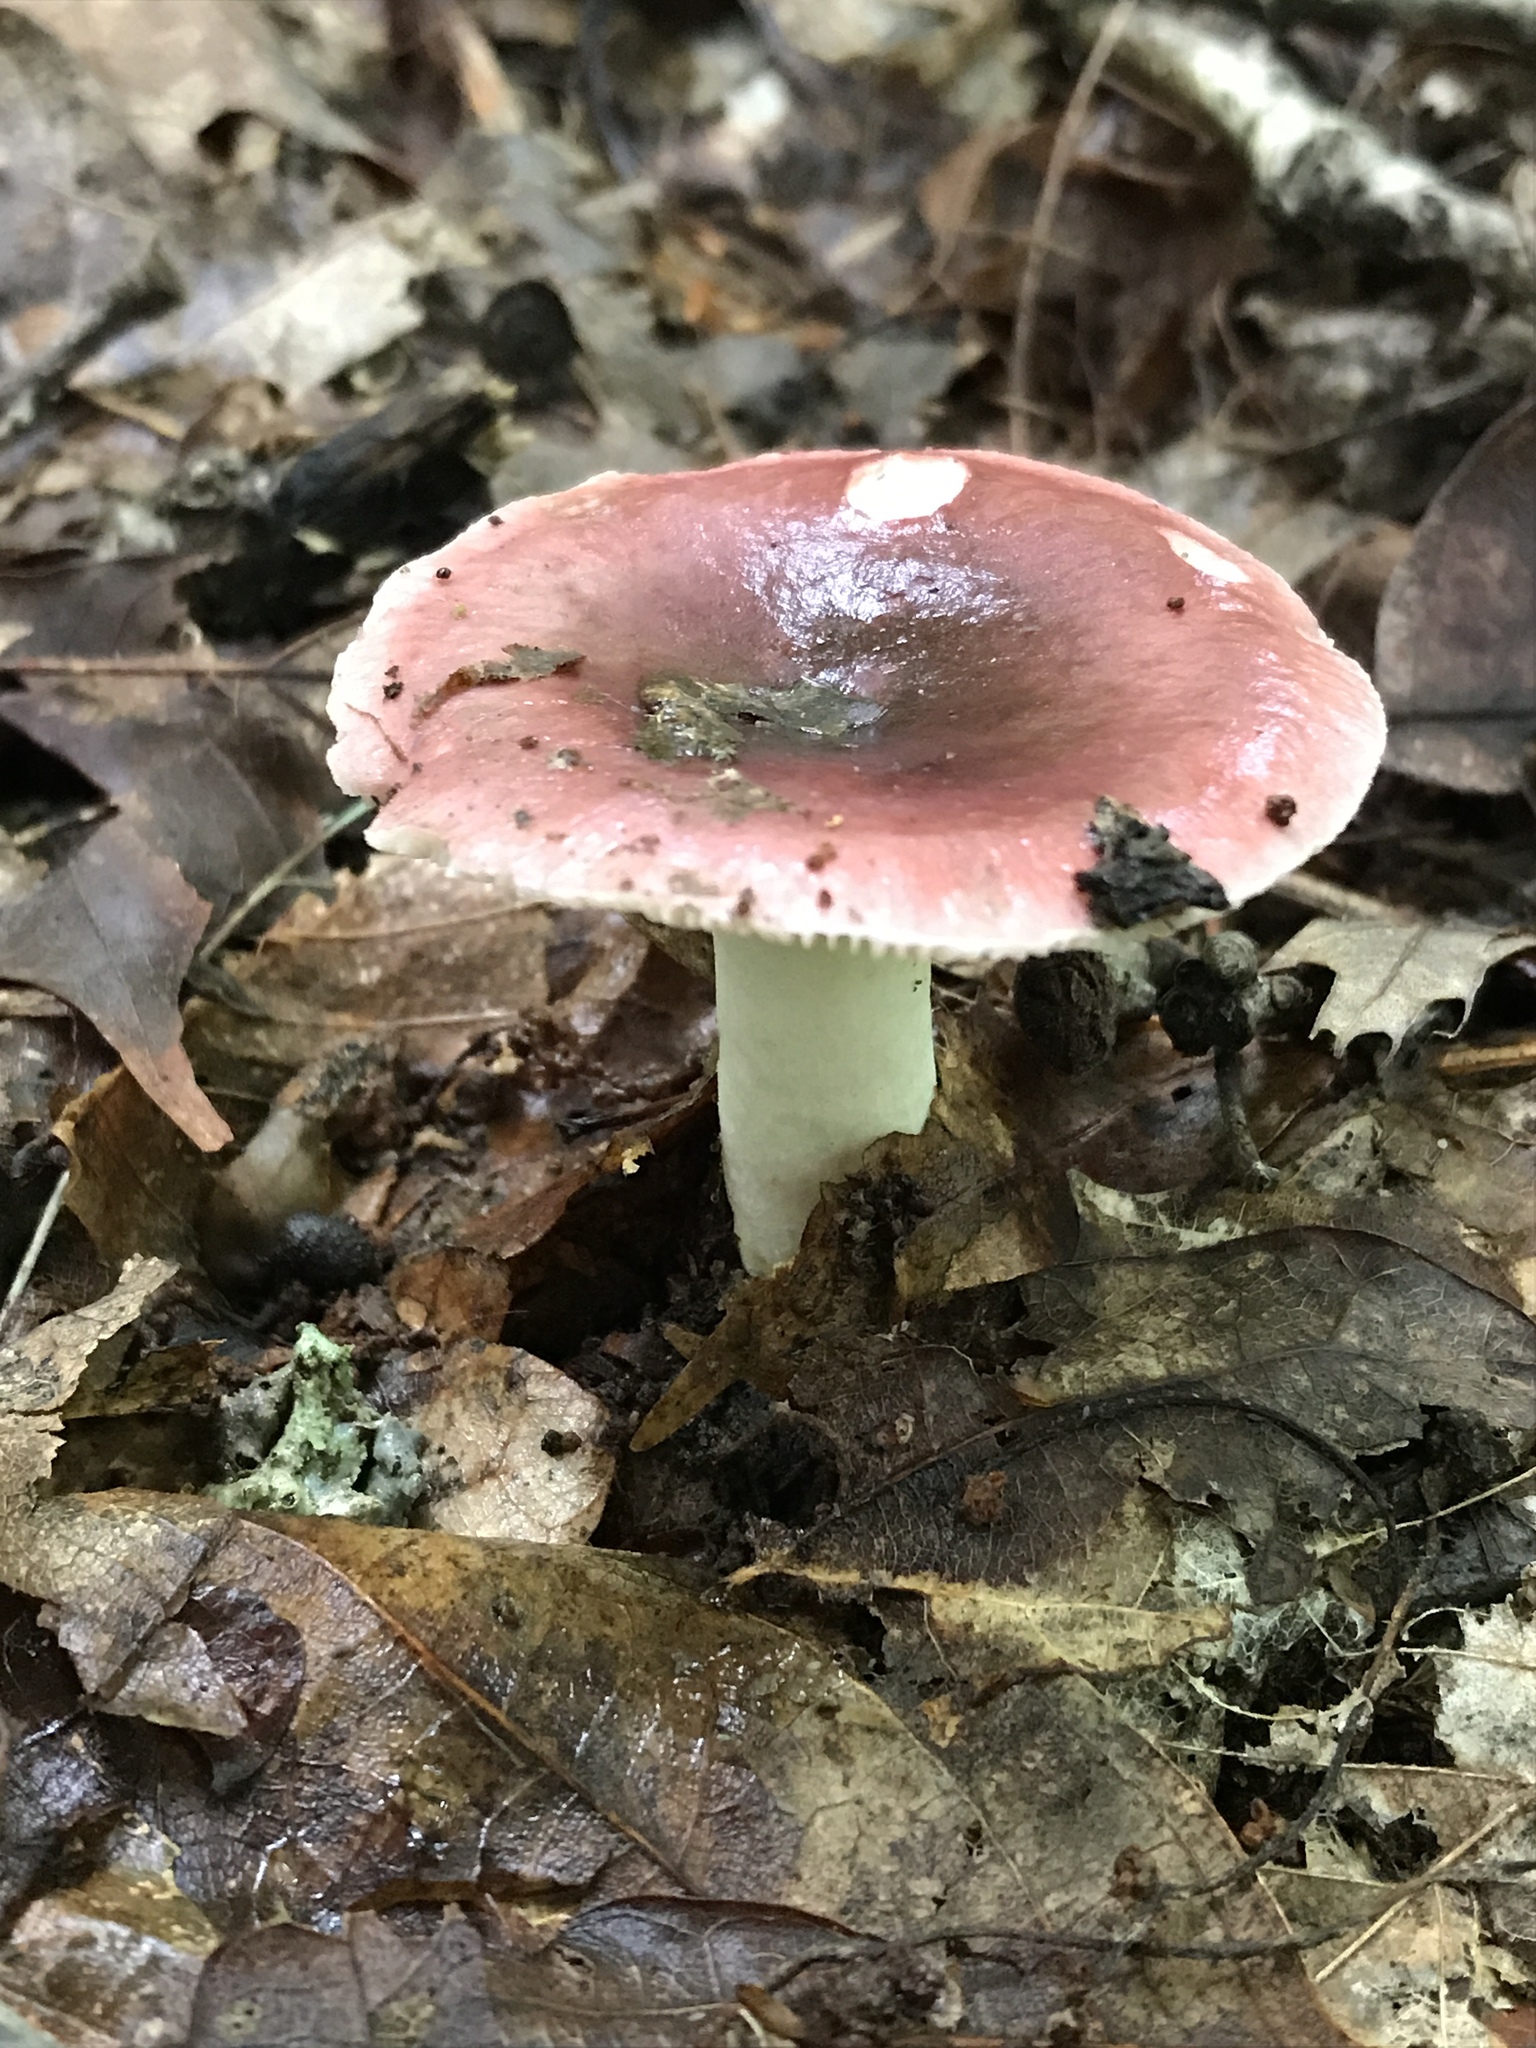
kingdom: Fungi
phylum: Basidiomycota
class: Agaricomycetes
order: Russulales
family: Russulaceae
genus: Russula
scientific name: Russula vinacea
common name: Blackish-red russula
